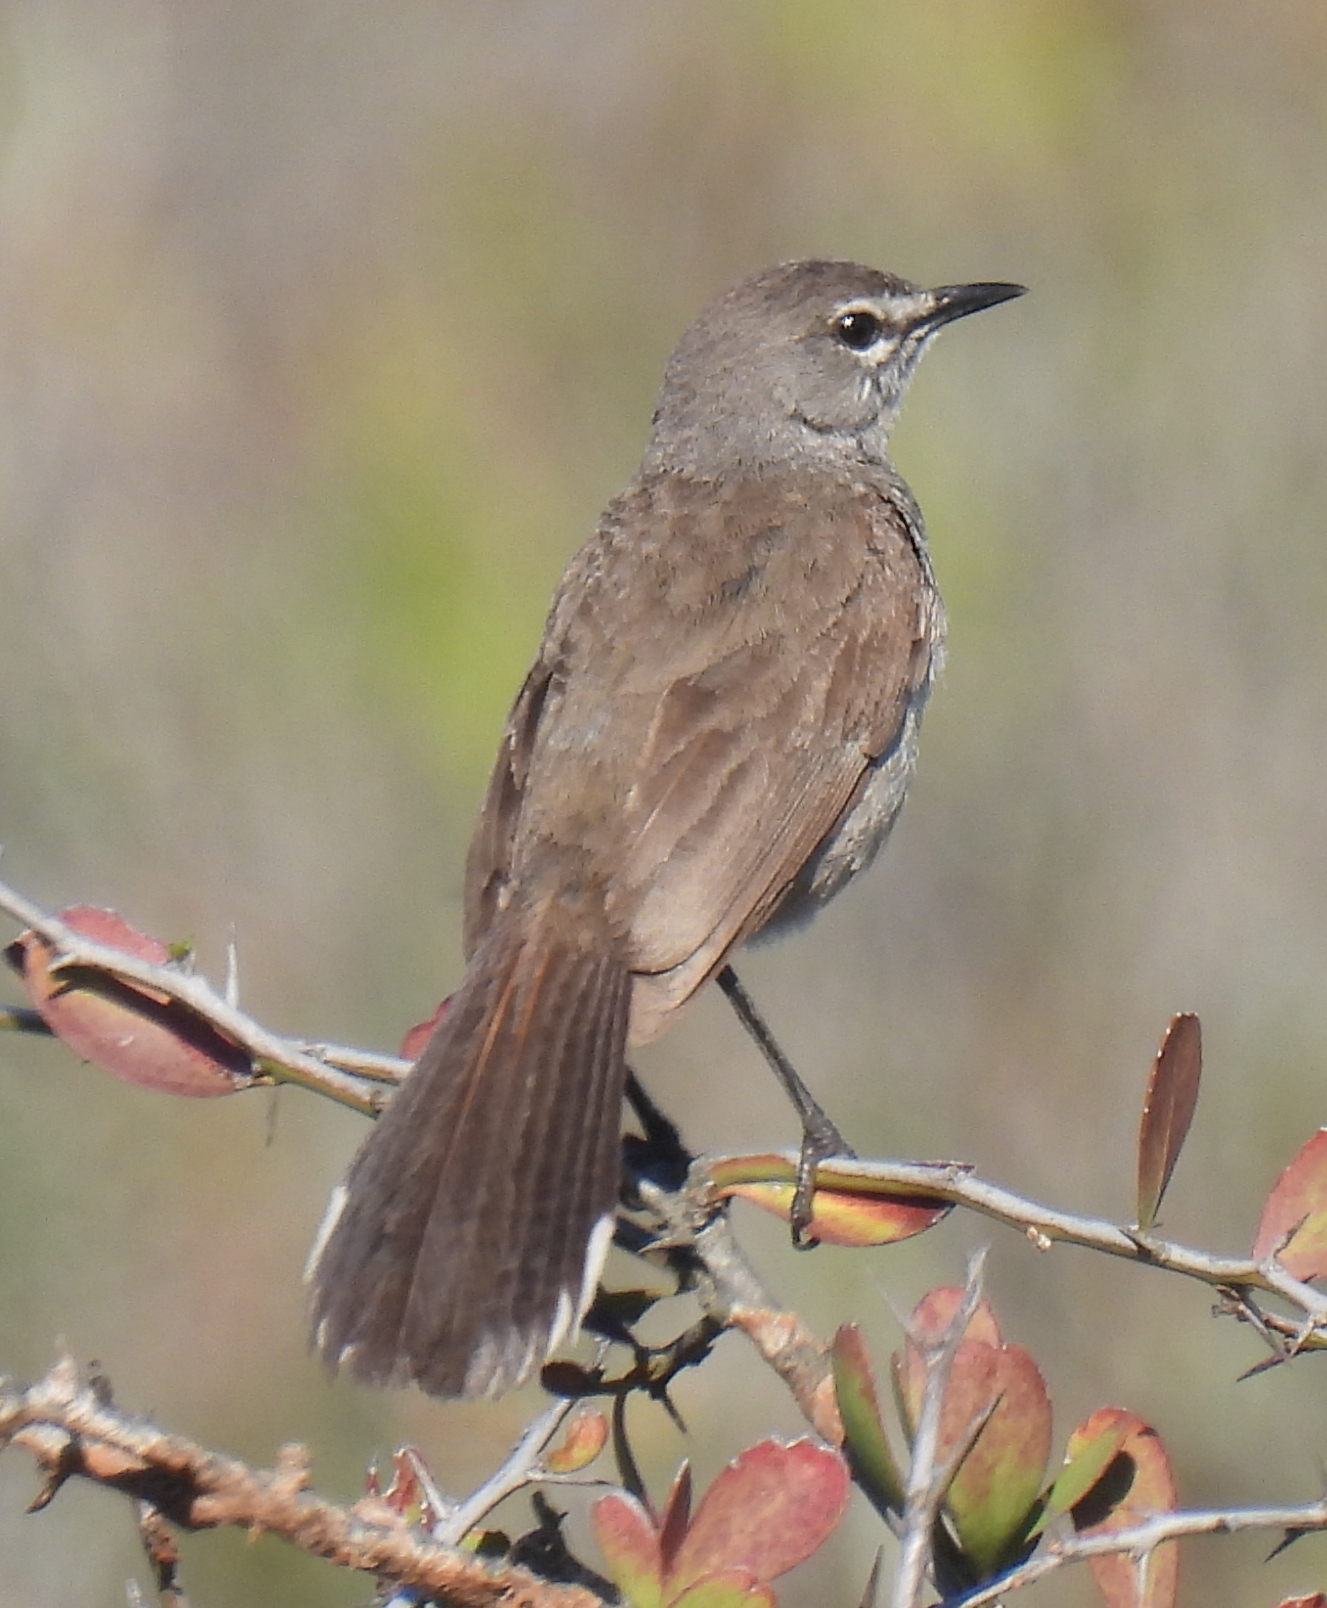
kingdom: Animalia
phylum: Chordata
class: Aves
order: Passeriformes
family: Muscicapidae
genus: Erythropygia
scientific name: Erythropygia coryphoeus
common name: Karoo scrub robin
